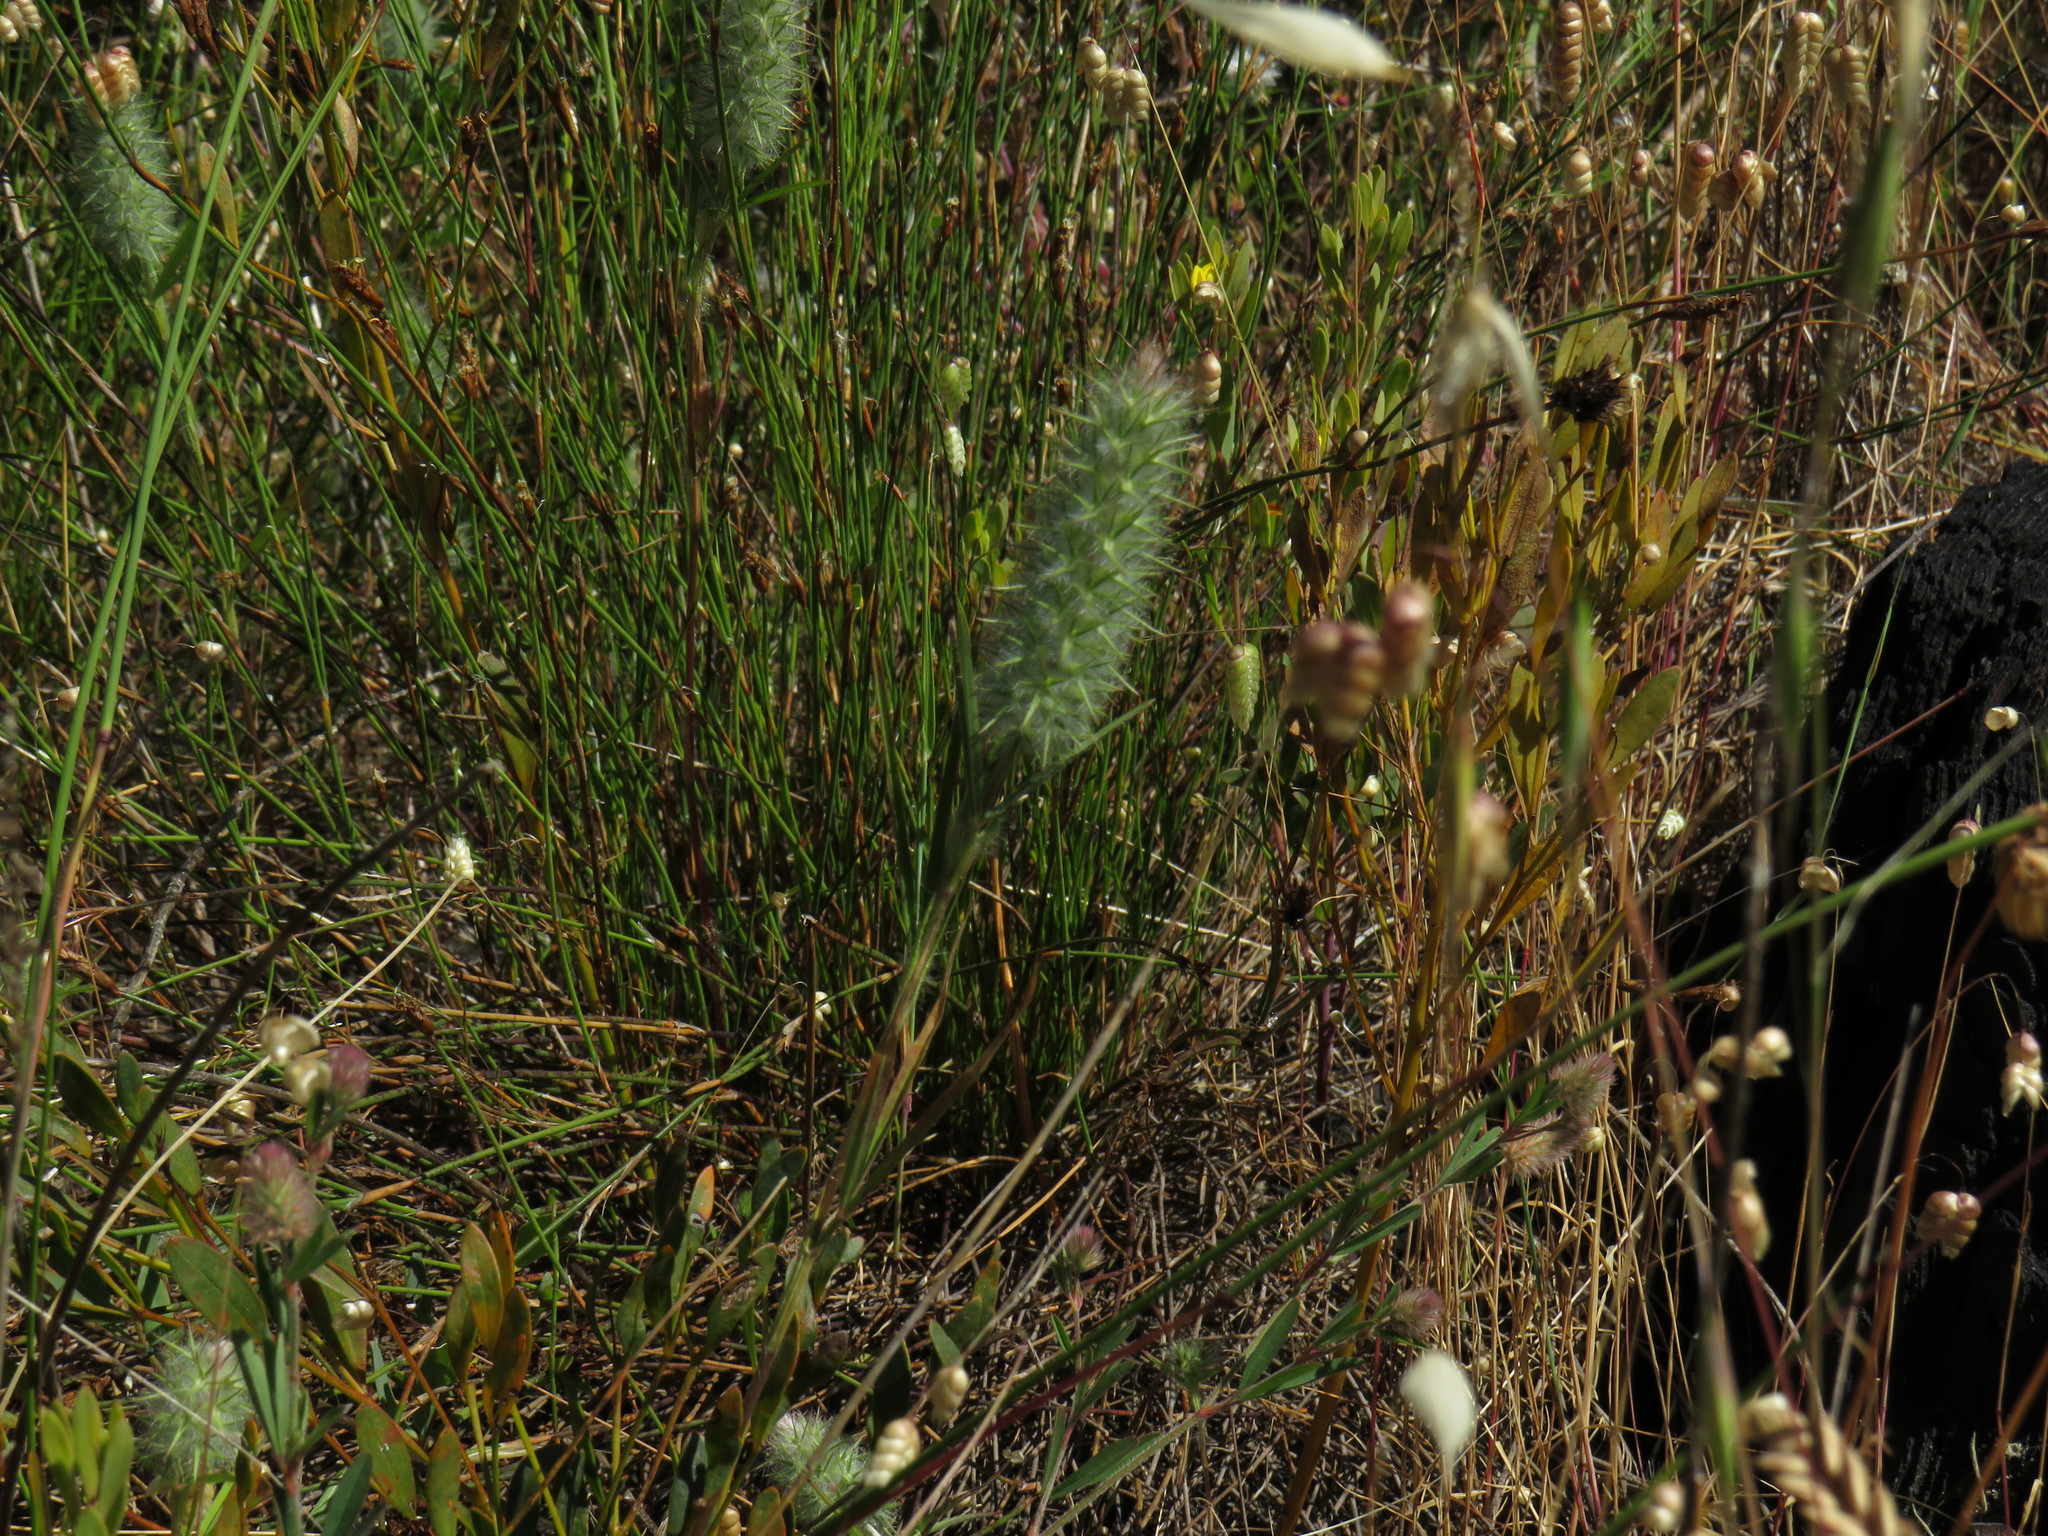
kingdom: Plantae
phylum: Tracheophyta
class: Magnoliopsida
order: Fabales
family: Fabaceae
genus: Trifolium
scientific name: Trifolium angustifolium
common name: Narrow clover
